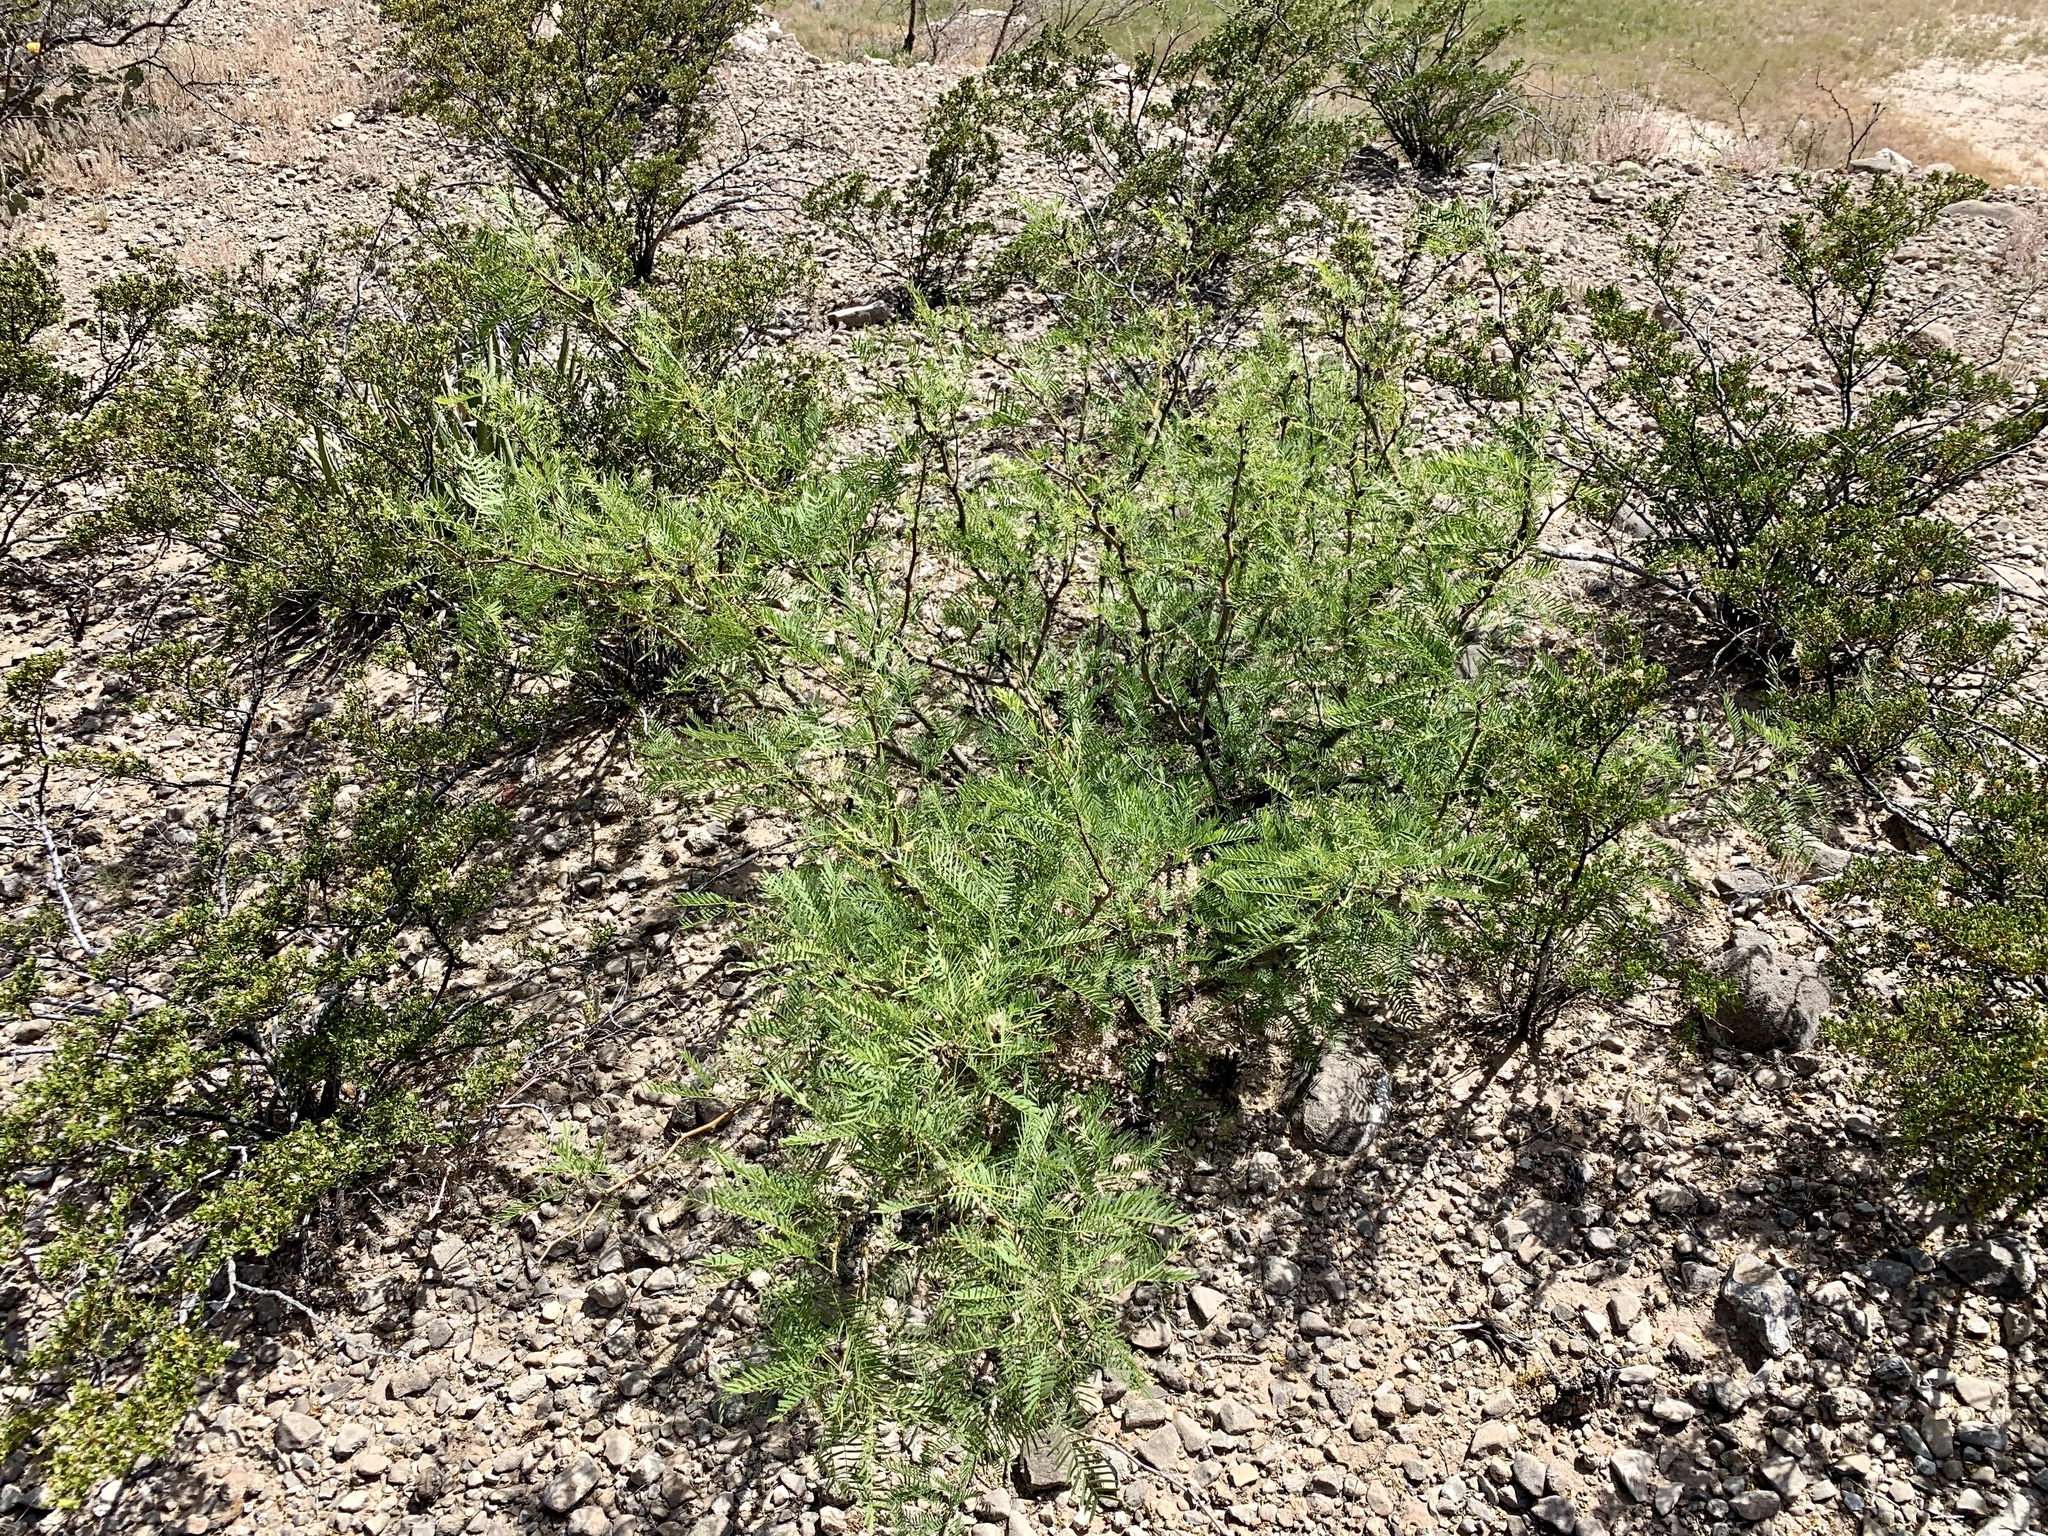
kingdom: Plantae
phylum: Tracheophyta
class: Magnoliopsida
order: Fabales
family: Fabaceae
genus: Prosopis
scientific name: Prosopis glandulosa
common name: Honey mesquite
